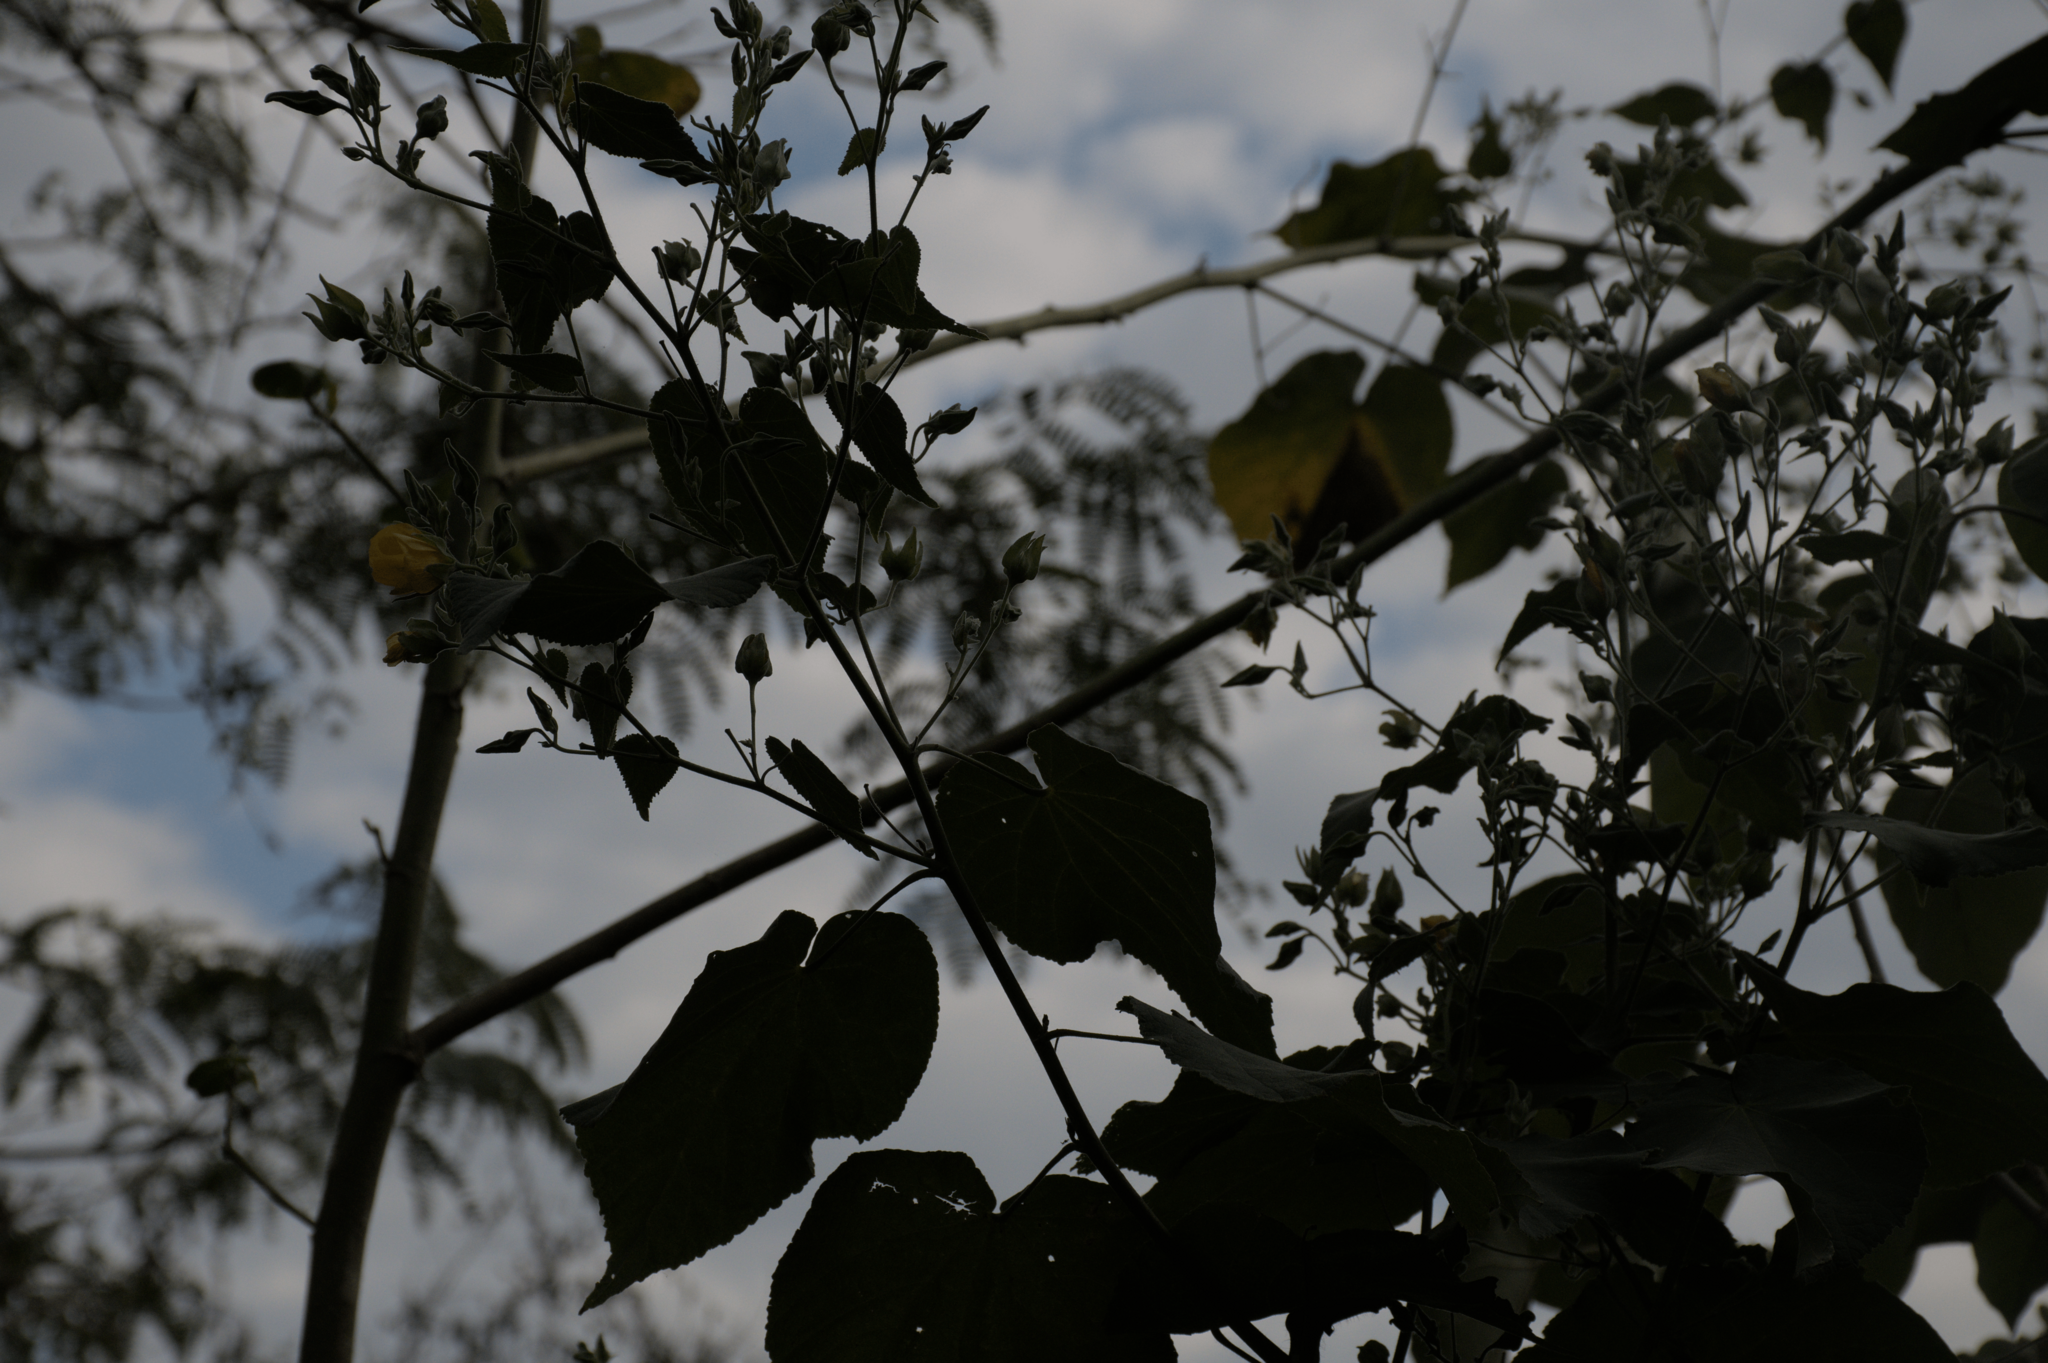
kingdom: Plantae
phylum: Tracheophyta
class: Magnoliopsida
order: Malvales
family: Malvaceae
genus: Abutilon
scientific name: Abutilon grandifolium
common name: Hairy abutilon
